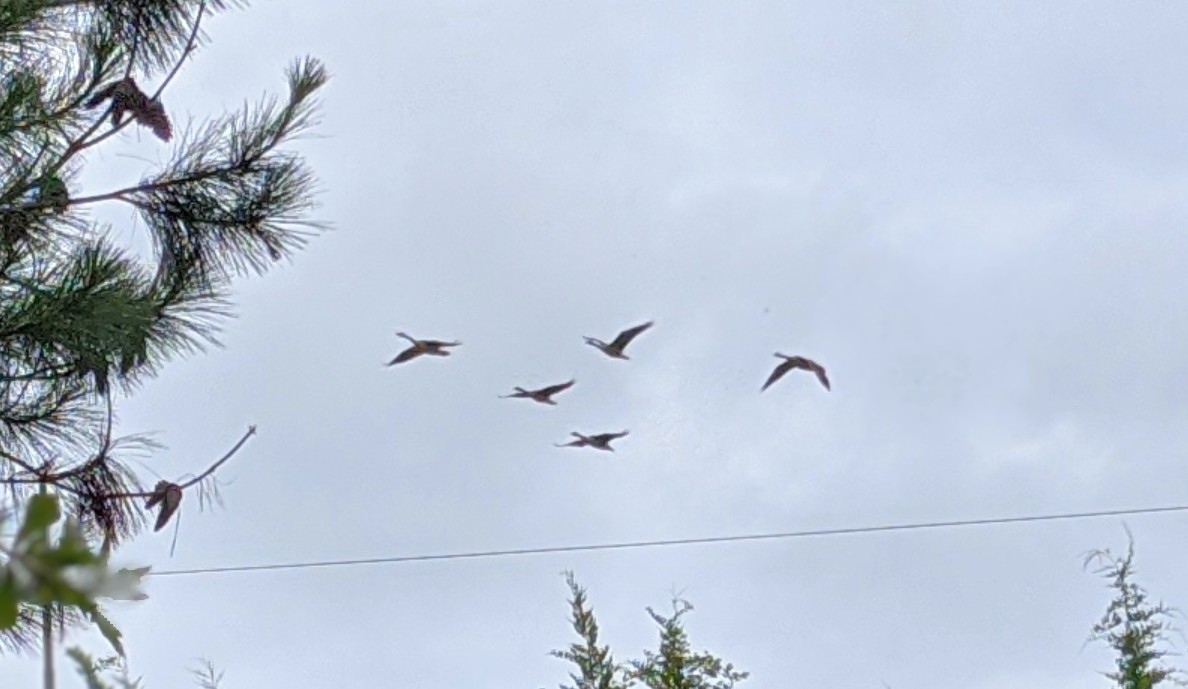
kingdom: Animalia
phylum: Chordata
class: Aves
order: Anseriformes
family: Anatidae
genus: Branta
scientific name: Branta canadensis
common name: Canada goose
